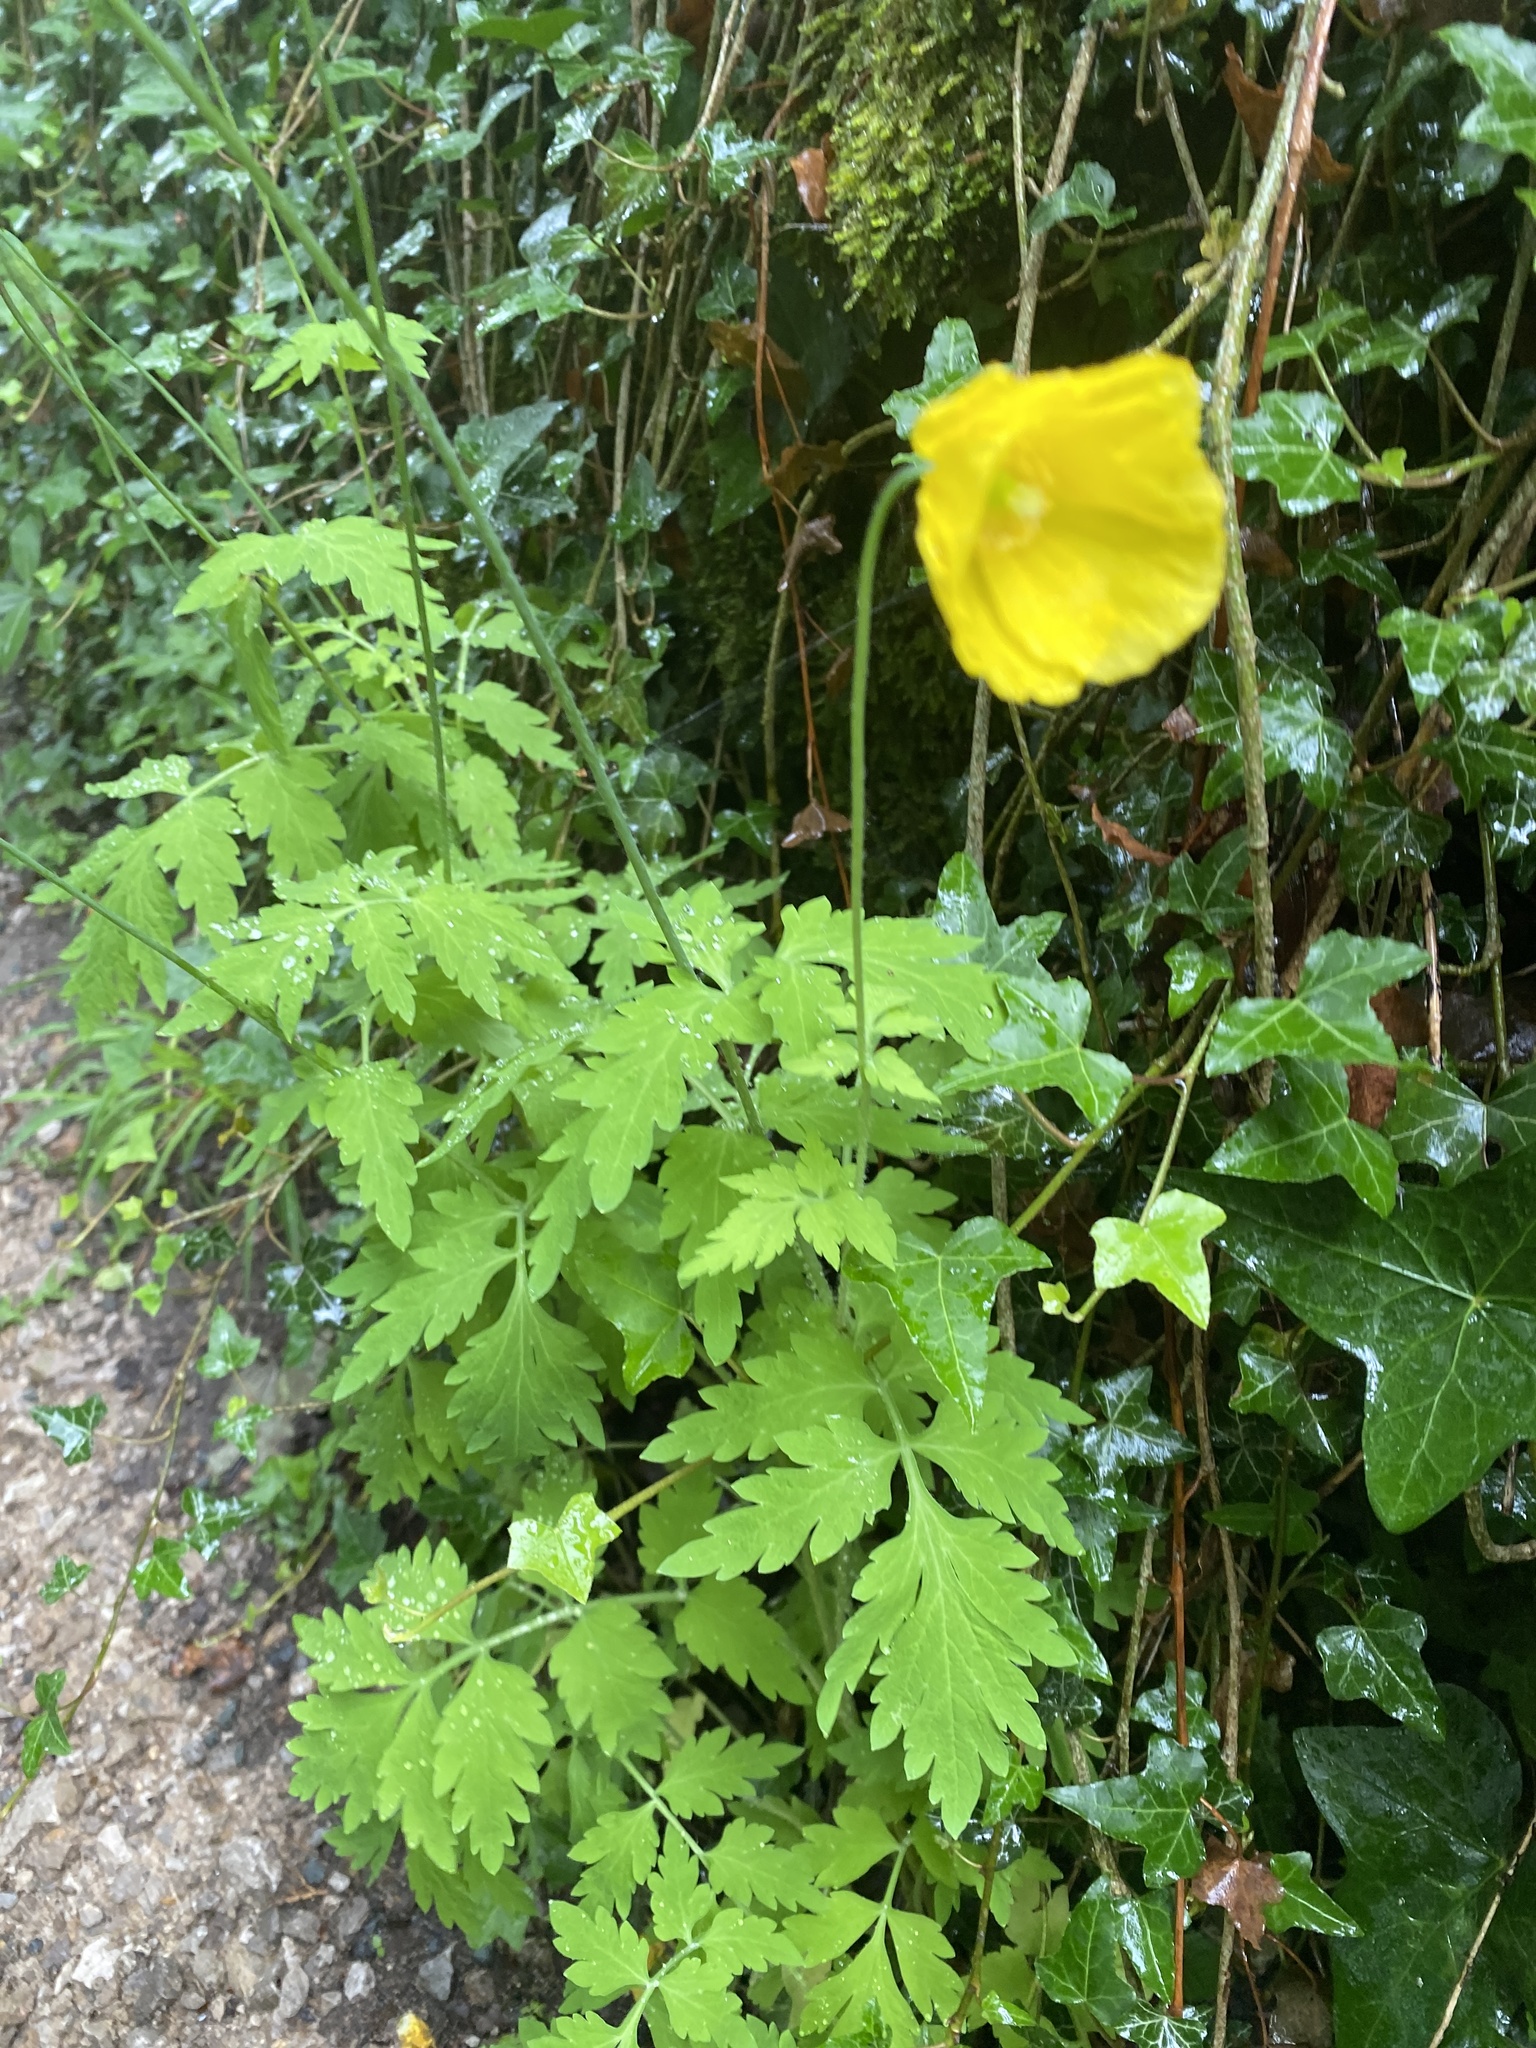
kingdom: Plantae
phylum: Tracheophyta
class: Magnoliopsida
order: Ranunculales
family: Papaveraceae
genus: Papaver
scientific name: Papaver cambricum
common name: Poppy
